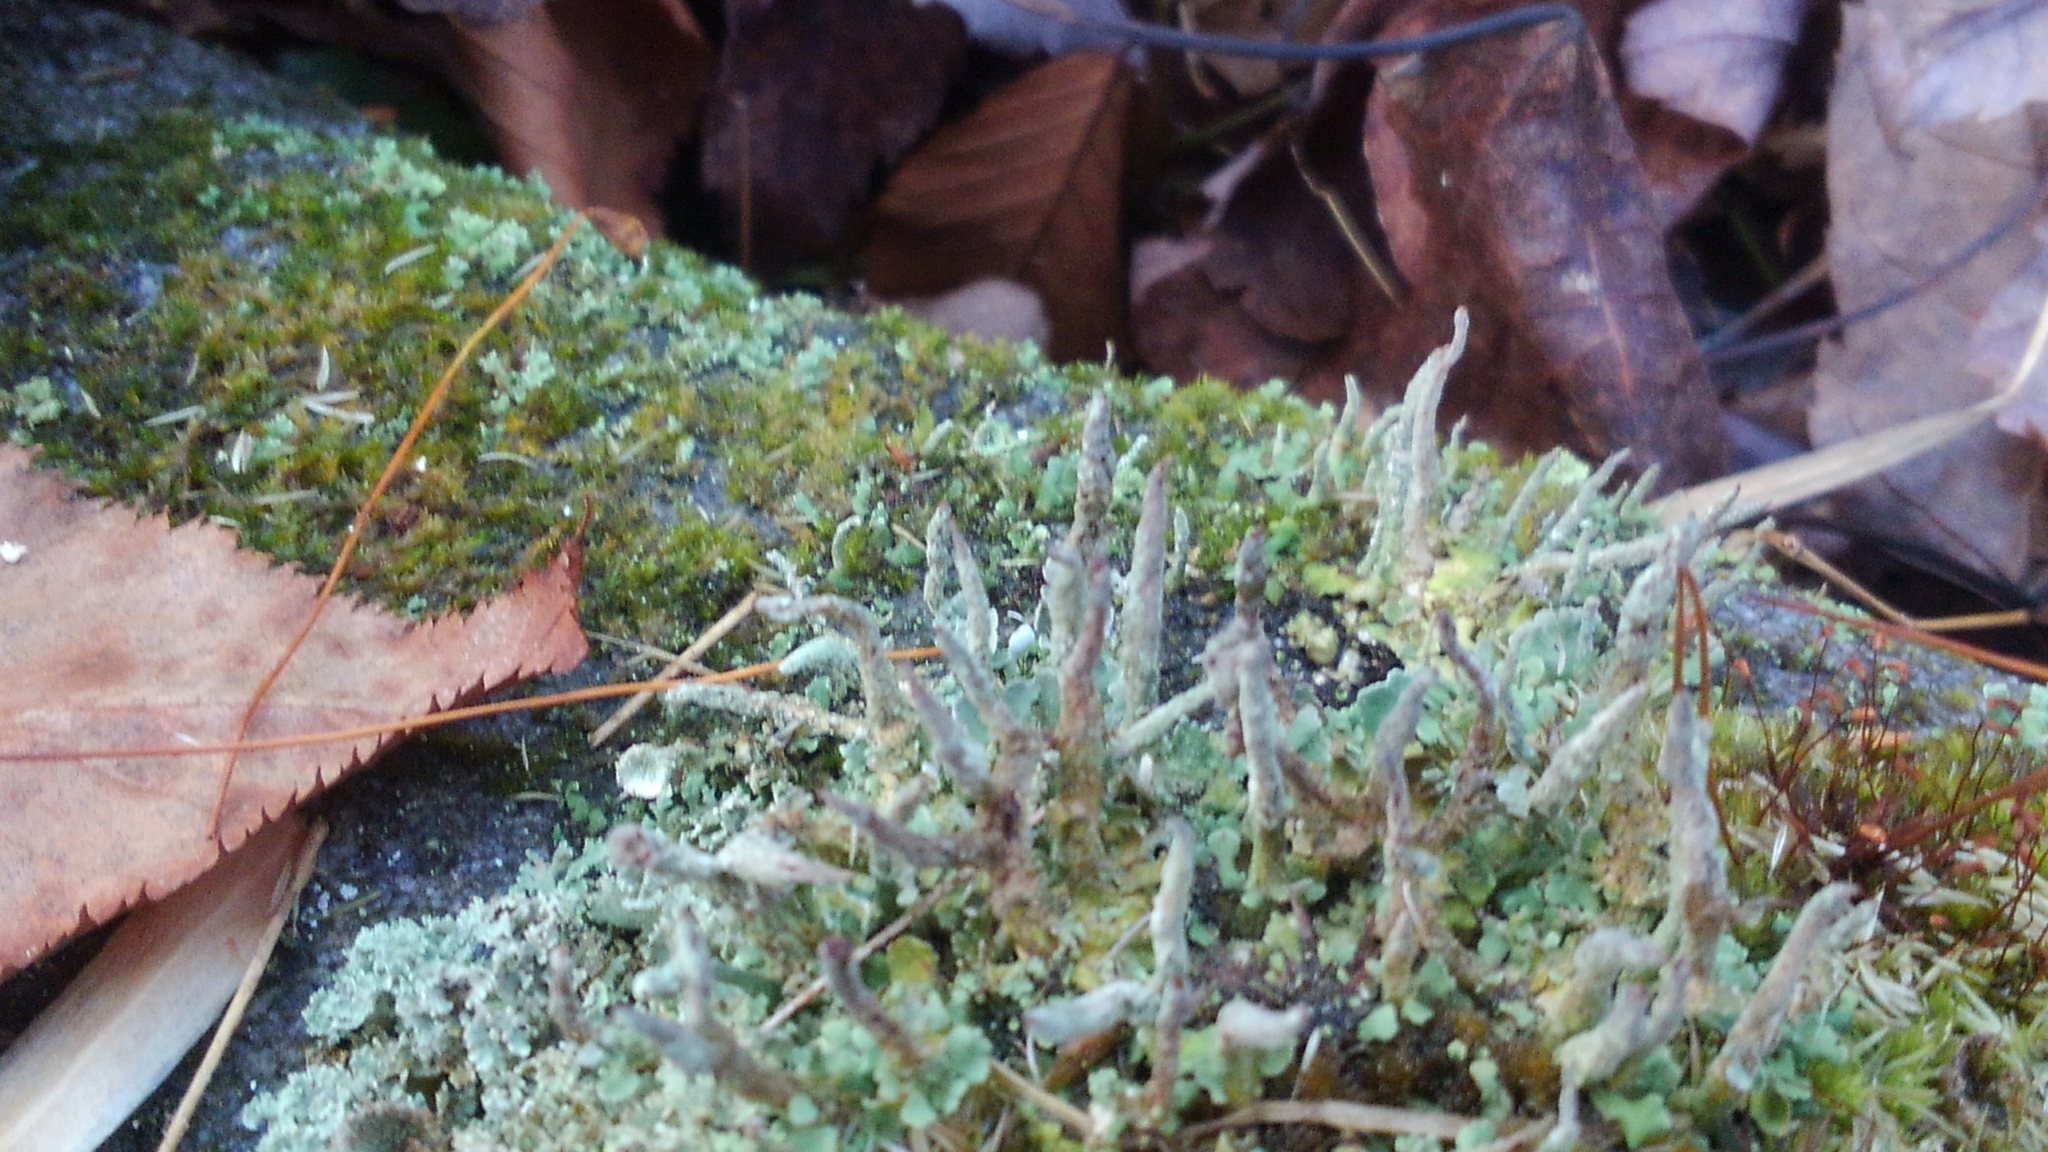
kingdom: Fungi
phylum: Ascomycota
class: Lecanoromycetes
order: Lecanorales
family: Cladoniaceae
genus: Cladonia
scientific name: Cladonia coniocraea
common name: Common powderhorn
